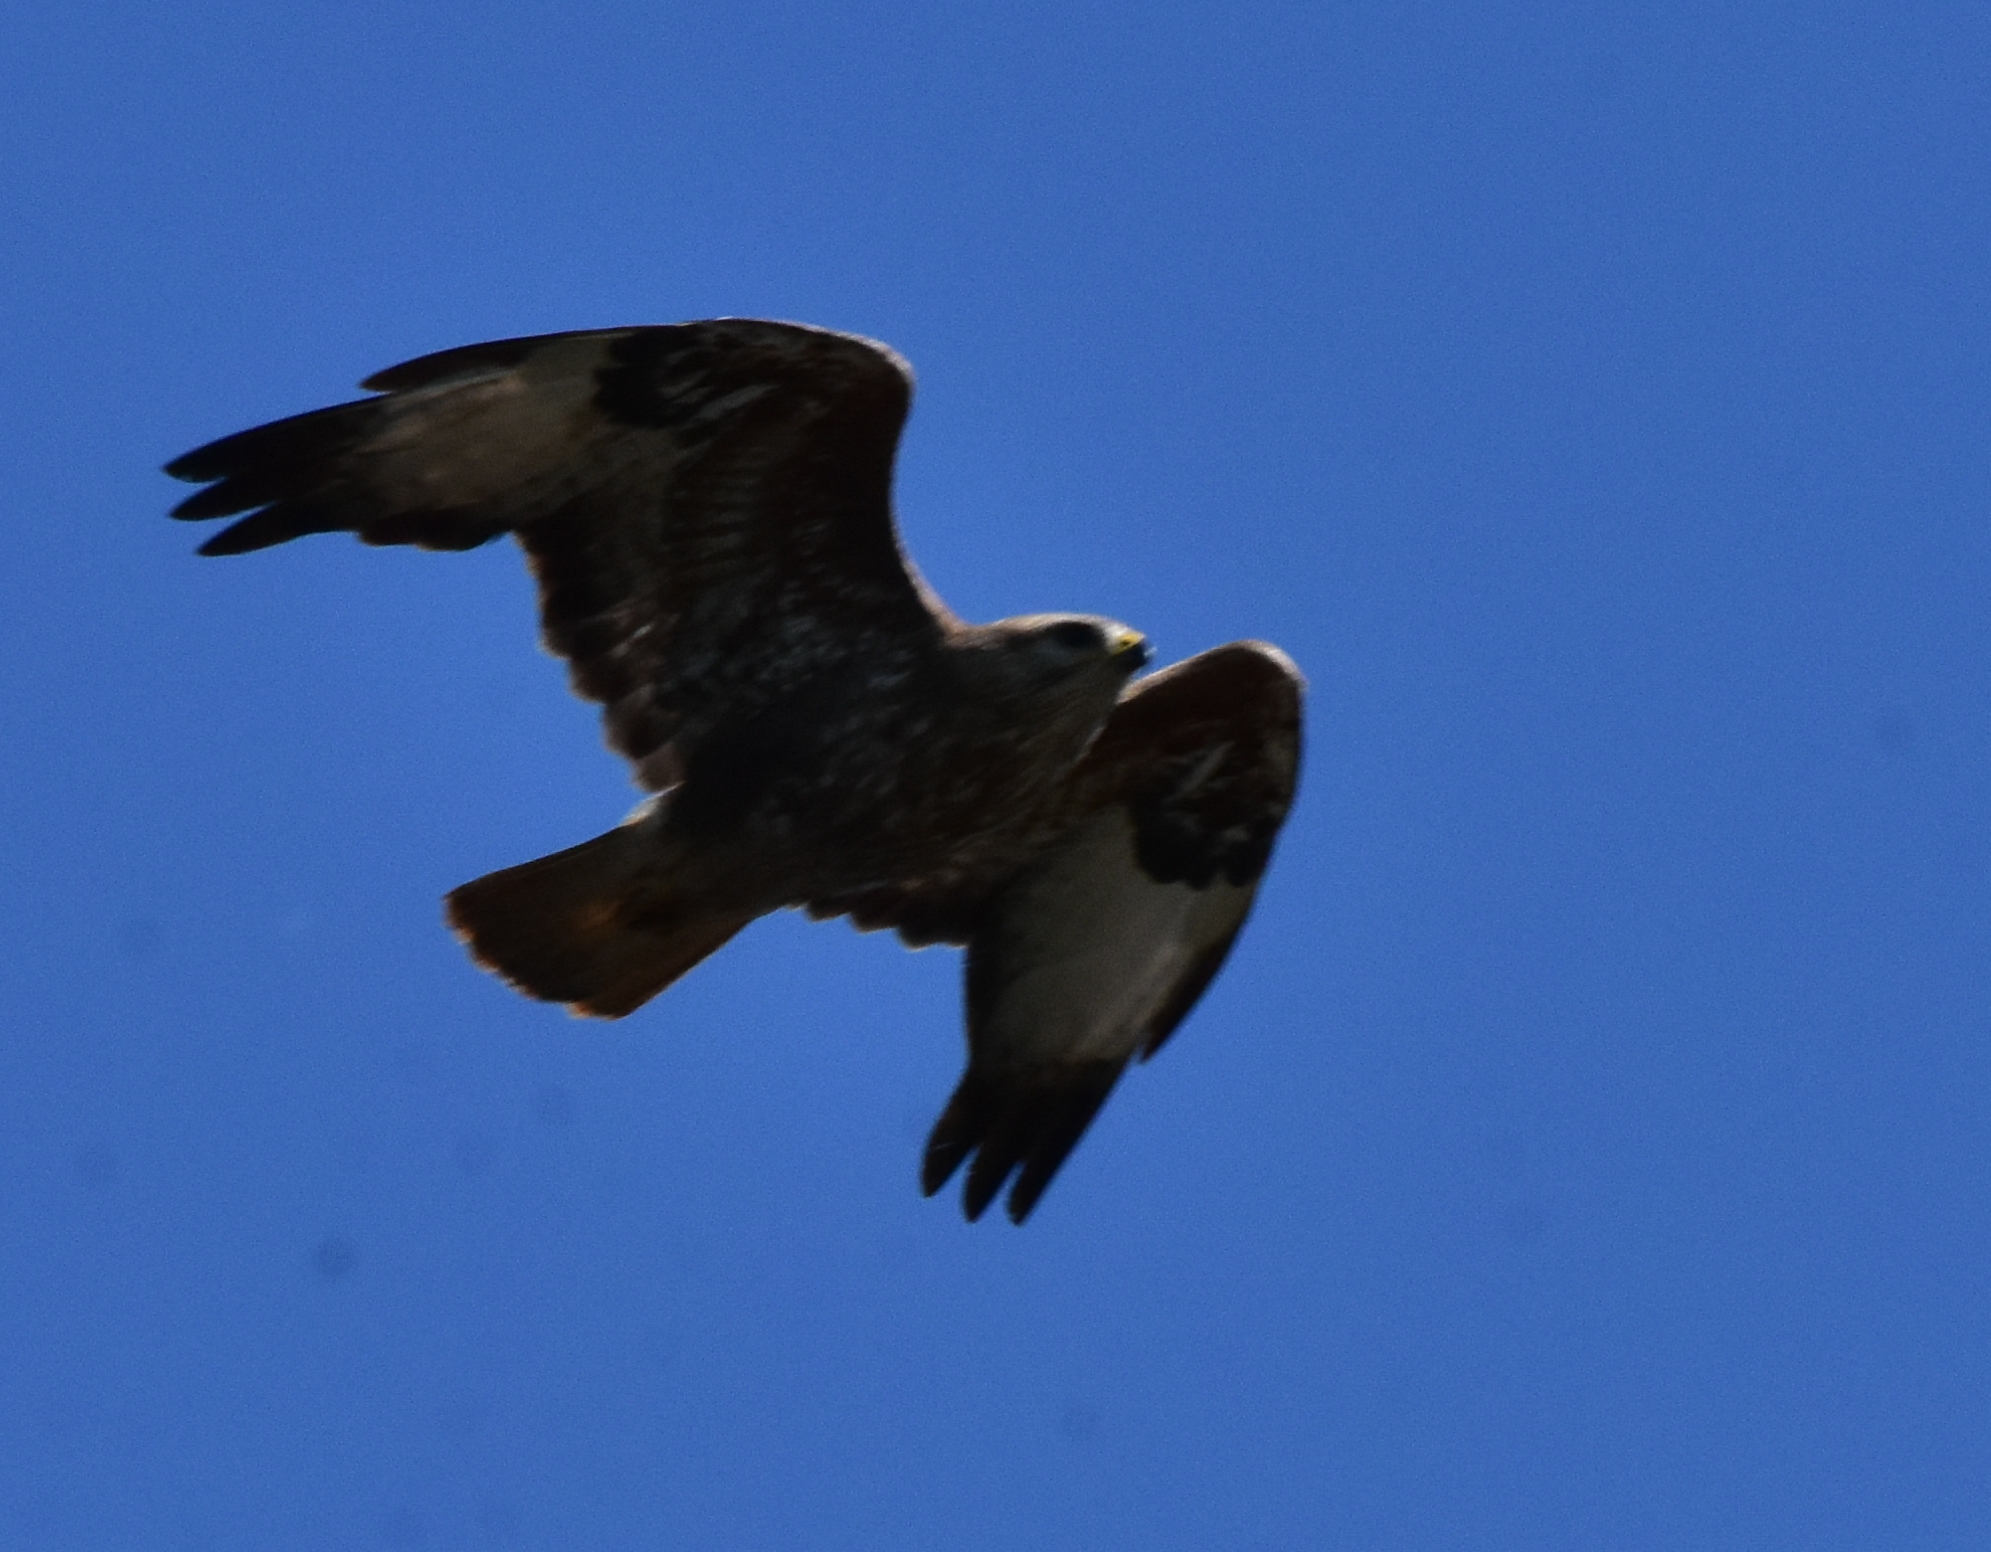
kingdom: Animalia
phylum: Chordata
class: Aves
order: Accipitriformes
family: Accipitridae
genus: Buteo
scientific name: Buteo buteo
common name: Common buzzard
